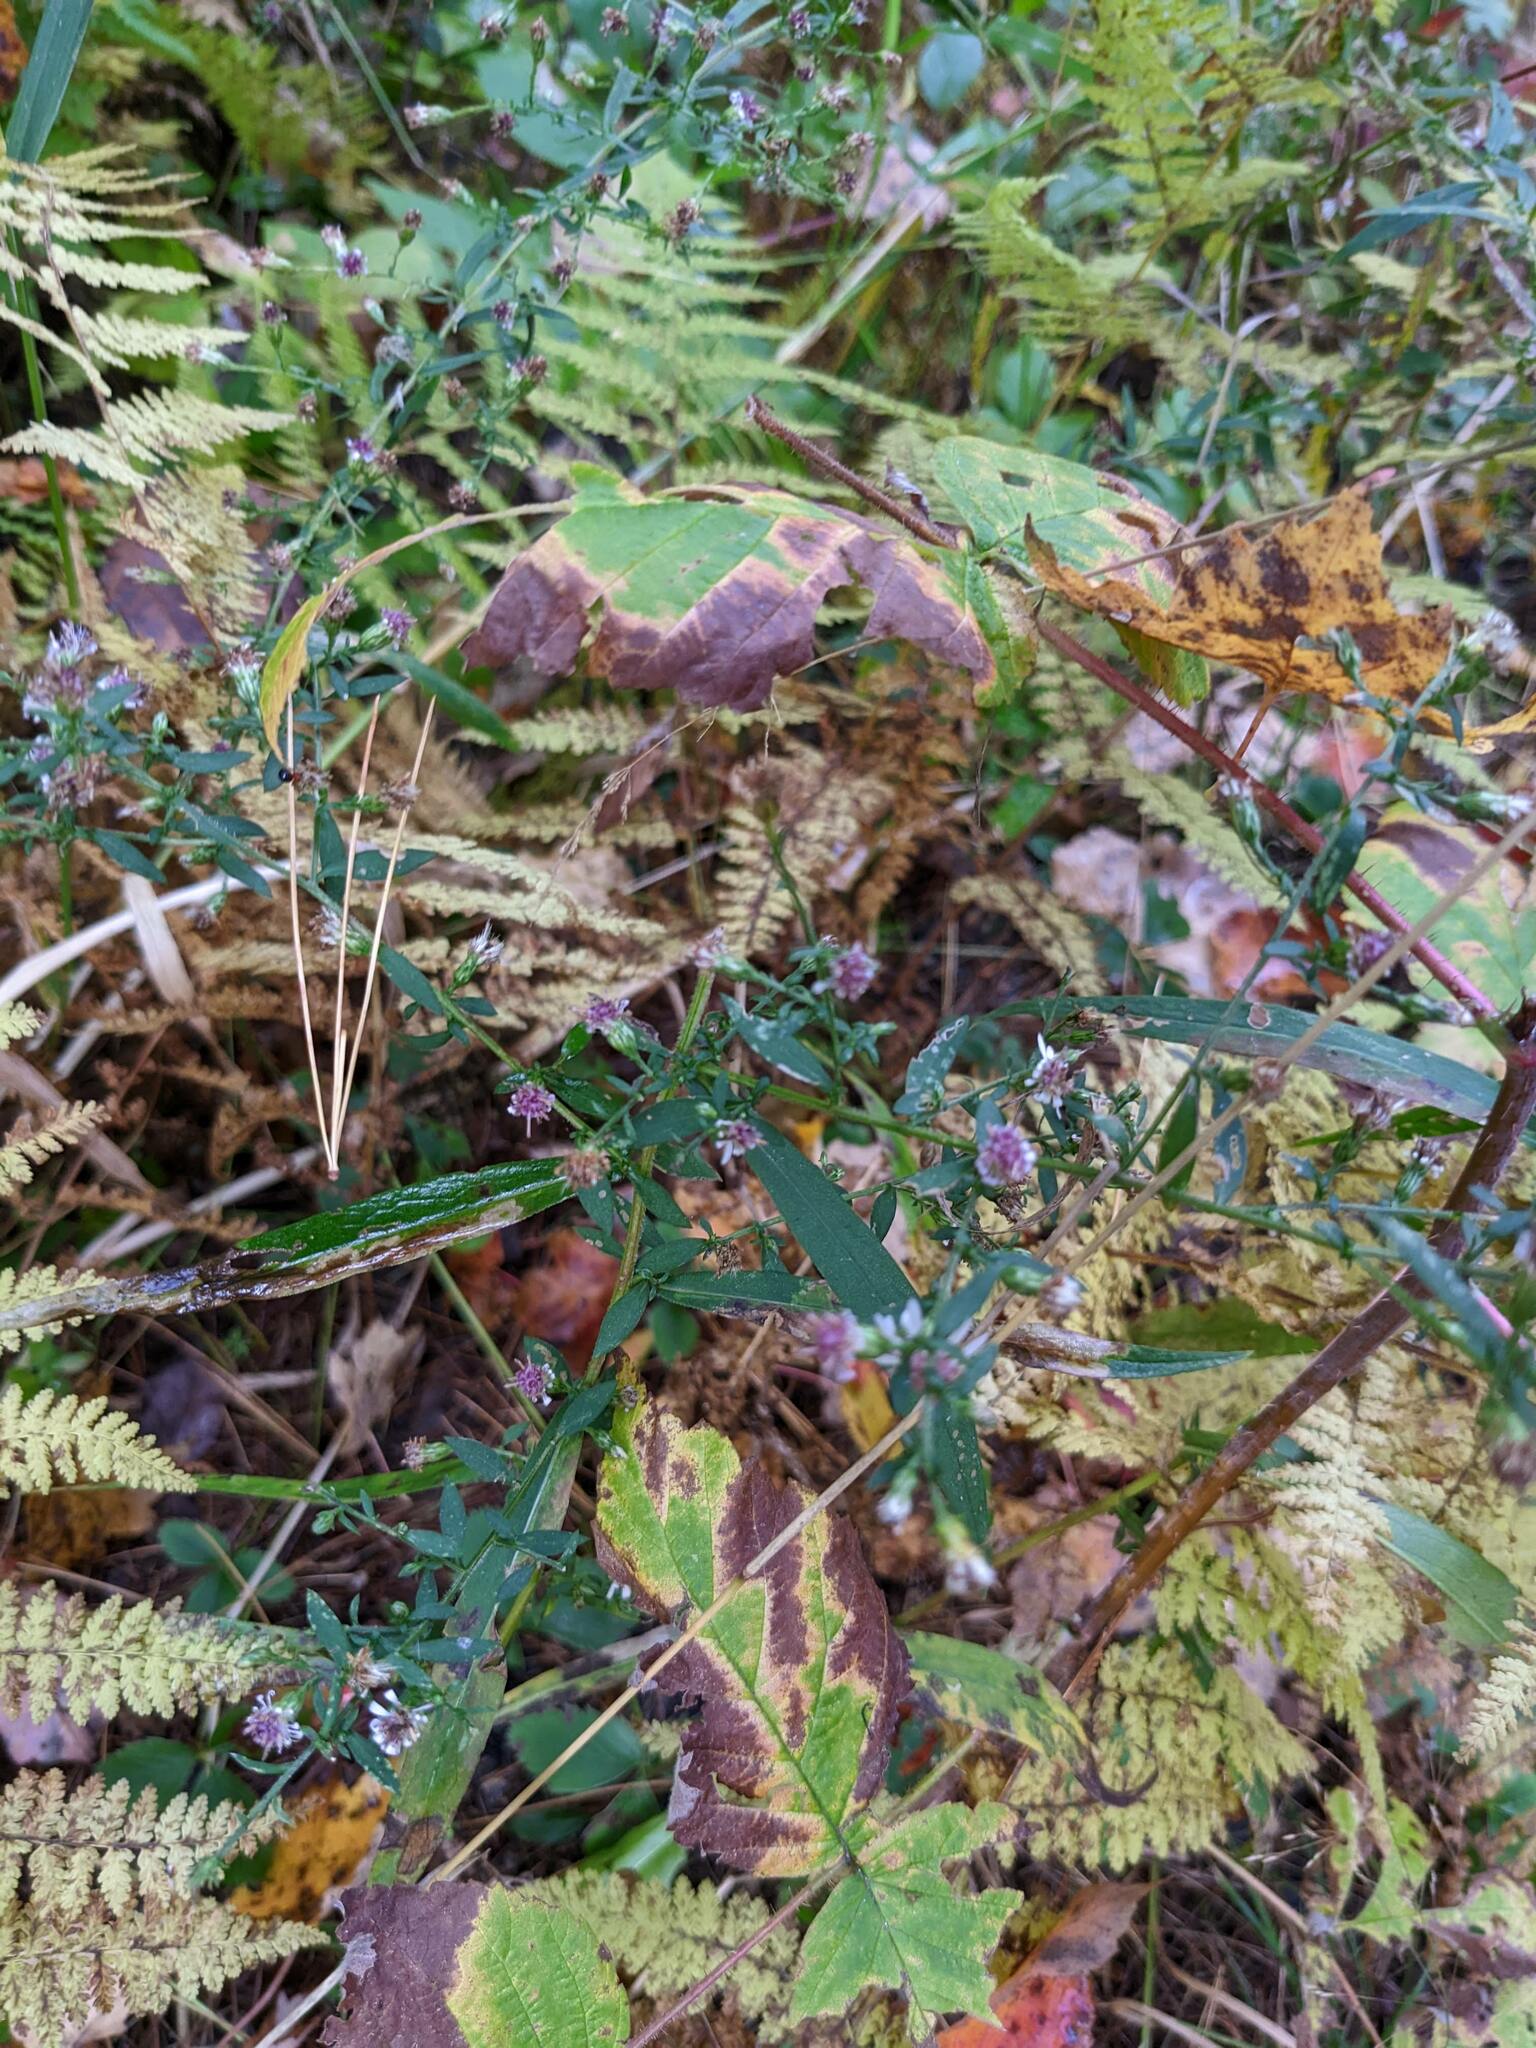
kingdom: Plantae
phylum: Tracheophyta
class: Magnoliopsida
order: Asterales
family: Asteraceae
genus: Symphyotrichum
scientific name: Symphyotrichum lateriflorum
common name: Calico aster
